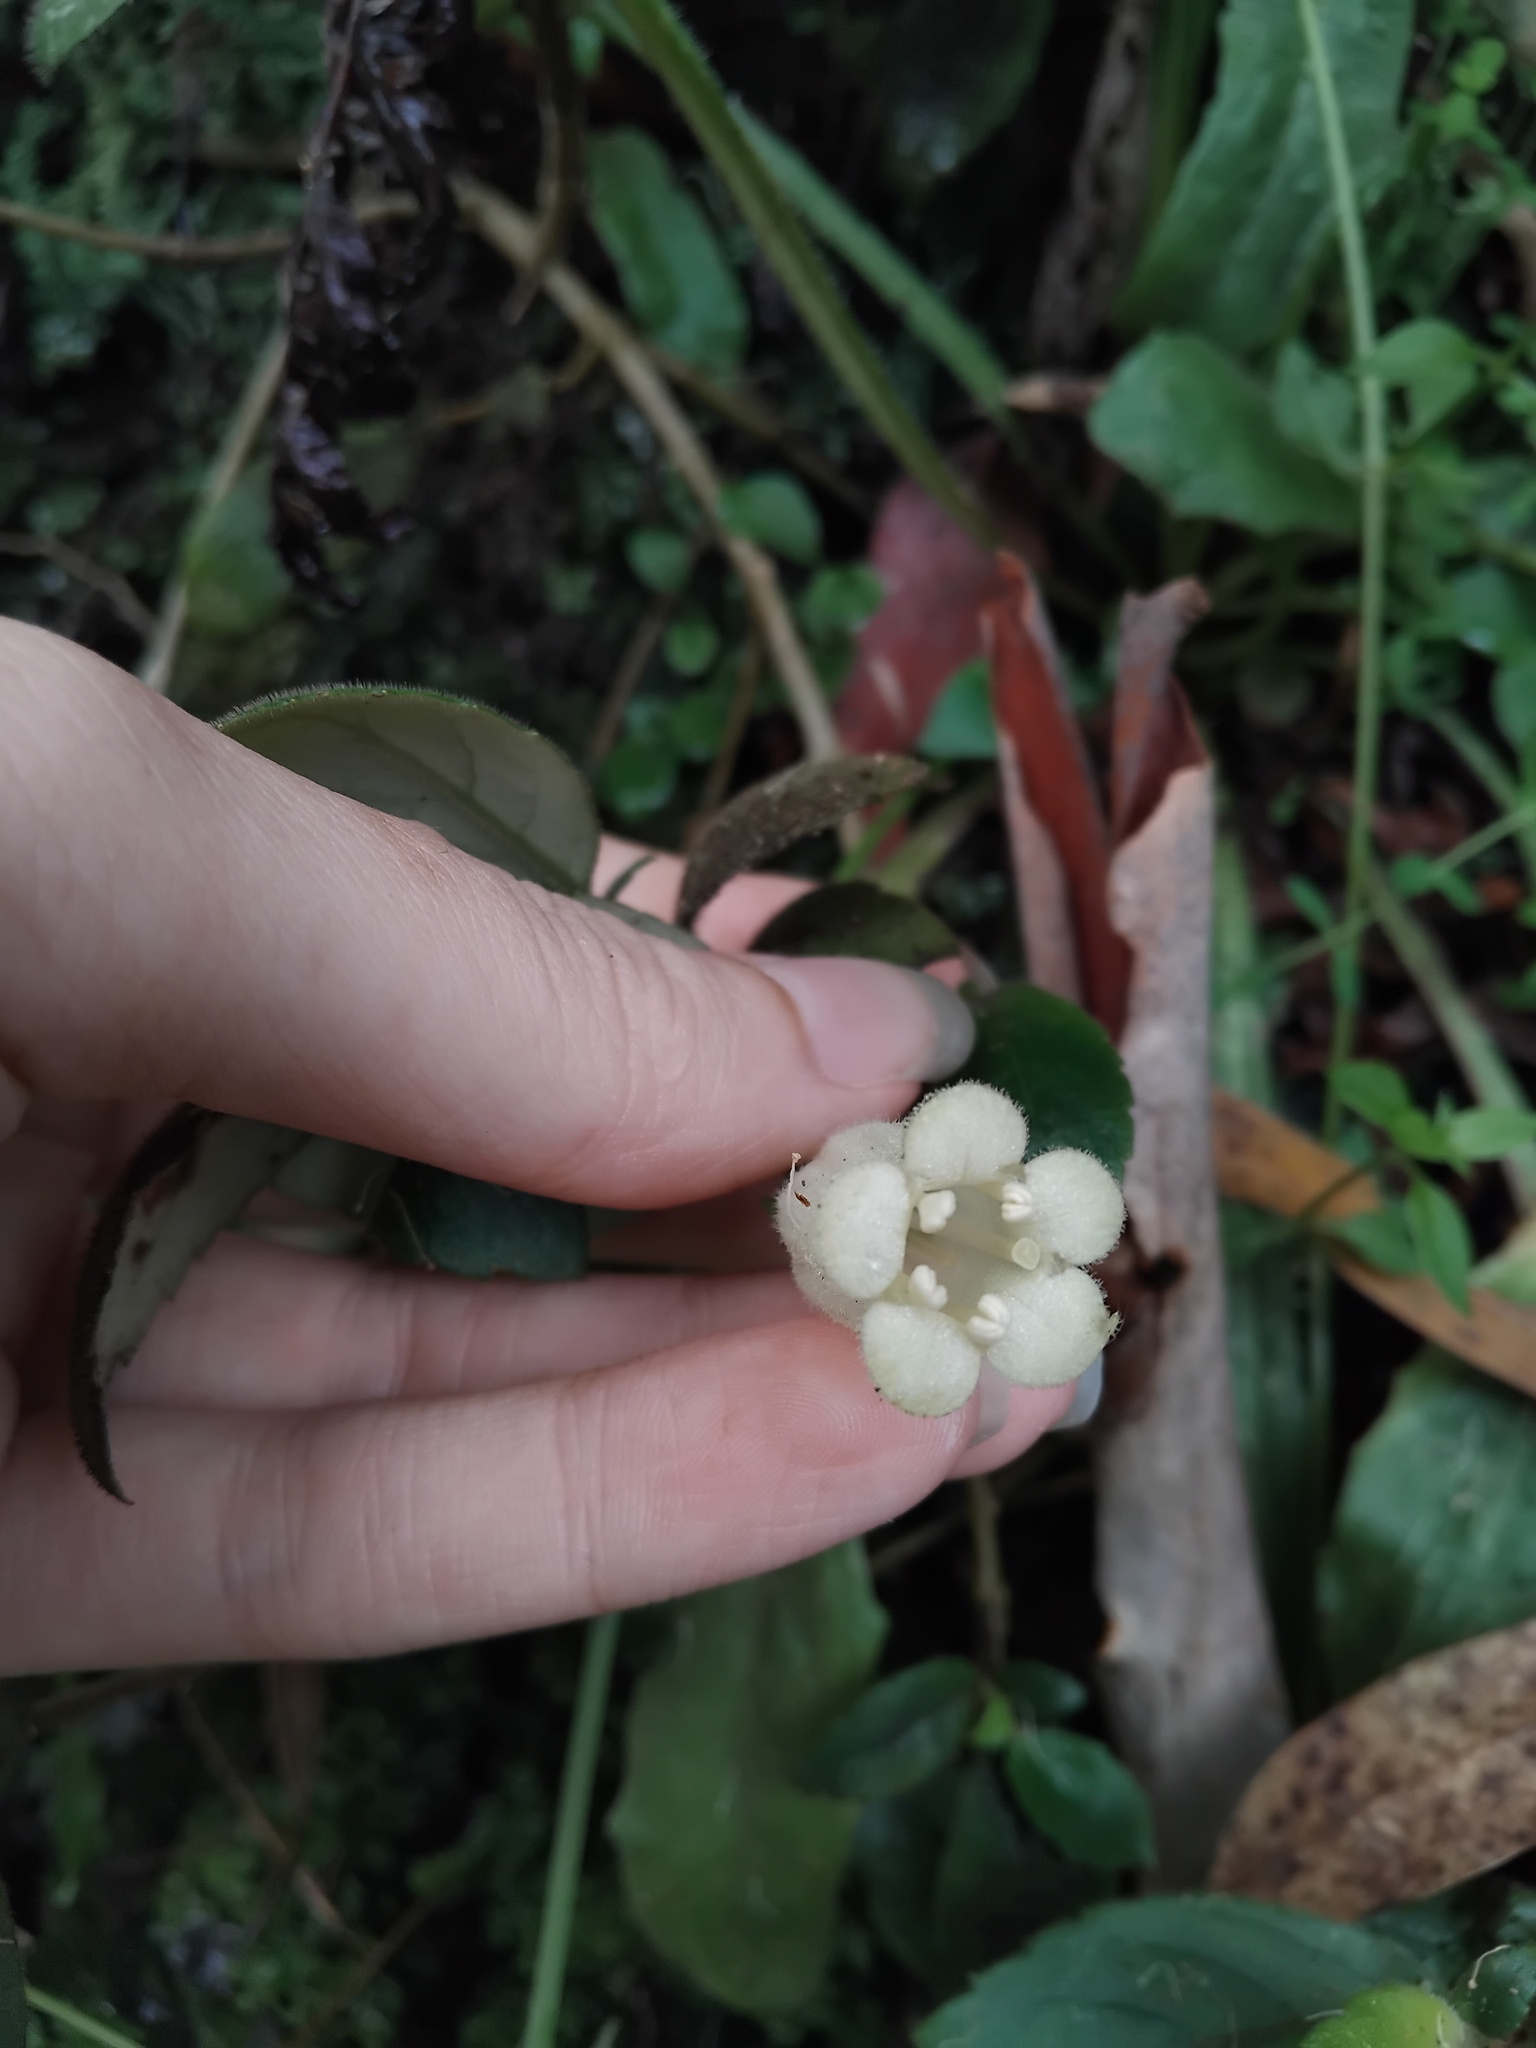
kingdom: Plantae
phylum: Tracheophyta
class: Magnoliopsida
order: Lamiales
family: Gesneriaceae
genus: Fieldia
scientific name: Fieldia australis
